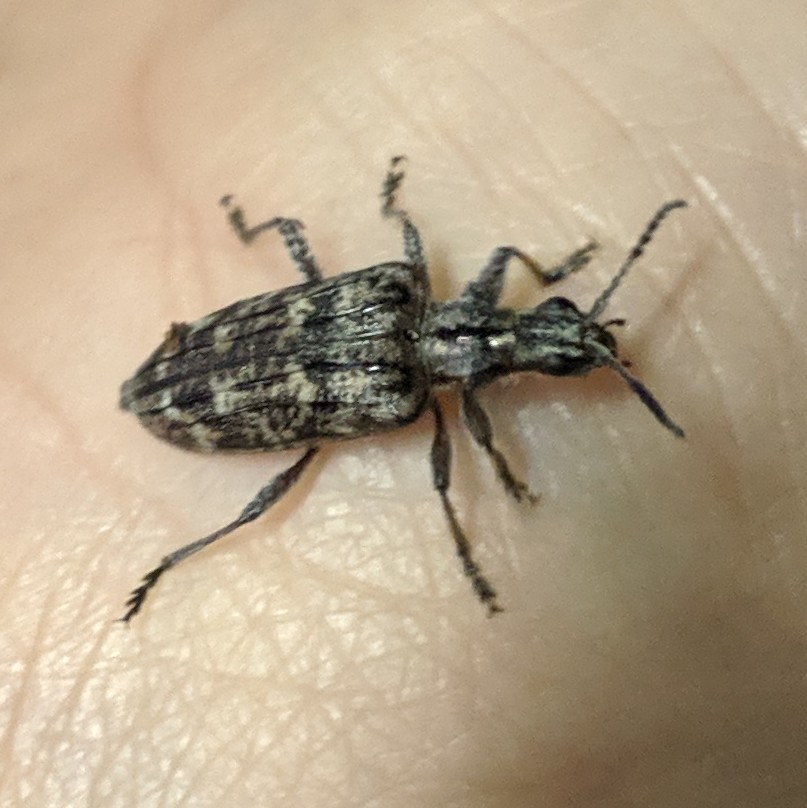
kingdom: Animalia
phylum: Arthropoda
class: Insecta
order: Coleoptera
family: Cerambycidae
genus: Rhagium
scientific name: Rhagium inquisitor
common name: Ribbed pine borer
